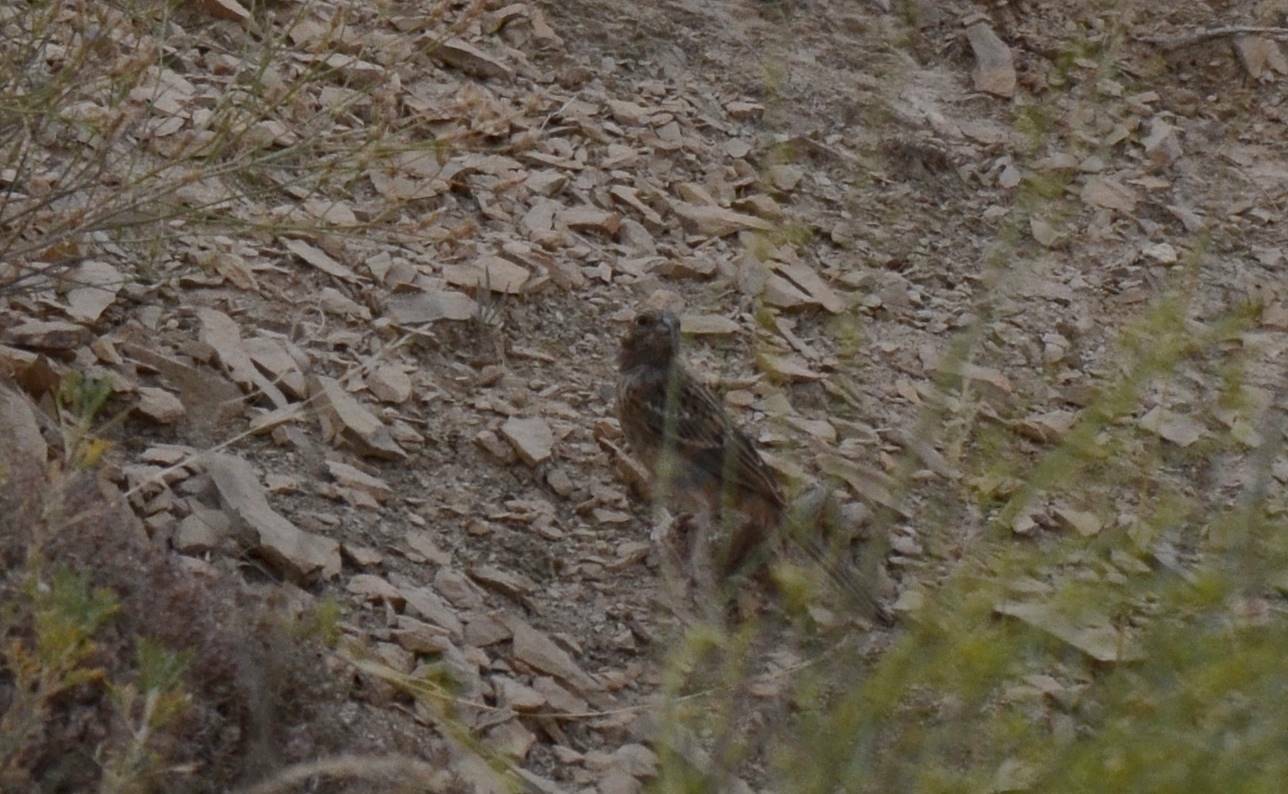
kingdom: Animalia
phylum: Chordata
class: Aves
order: Passeriformes
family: Emberizidae
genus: Emberiza
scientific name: Emberiza cia
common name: Rock bunting
